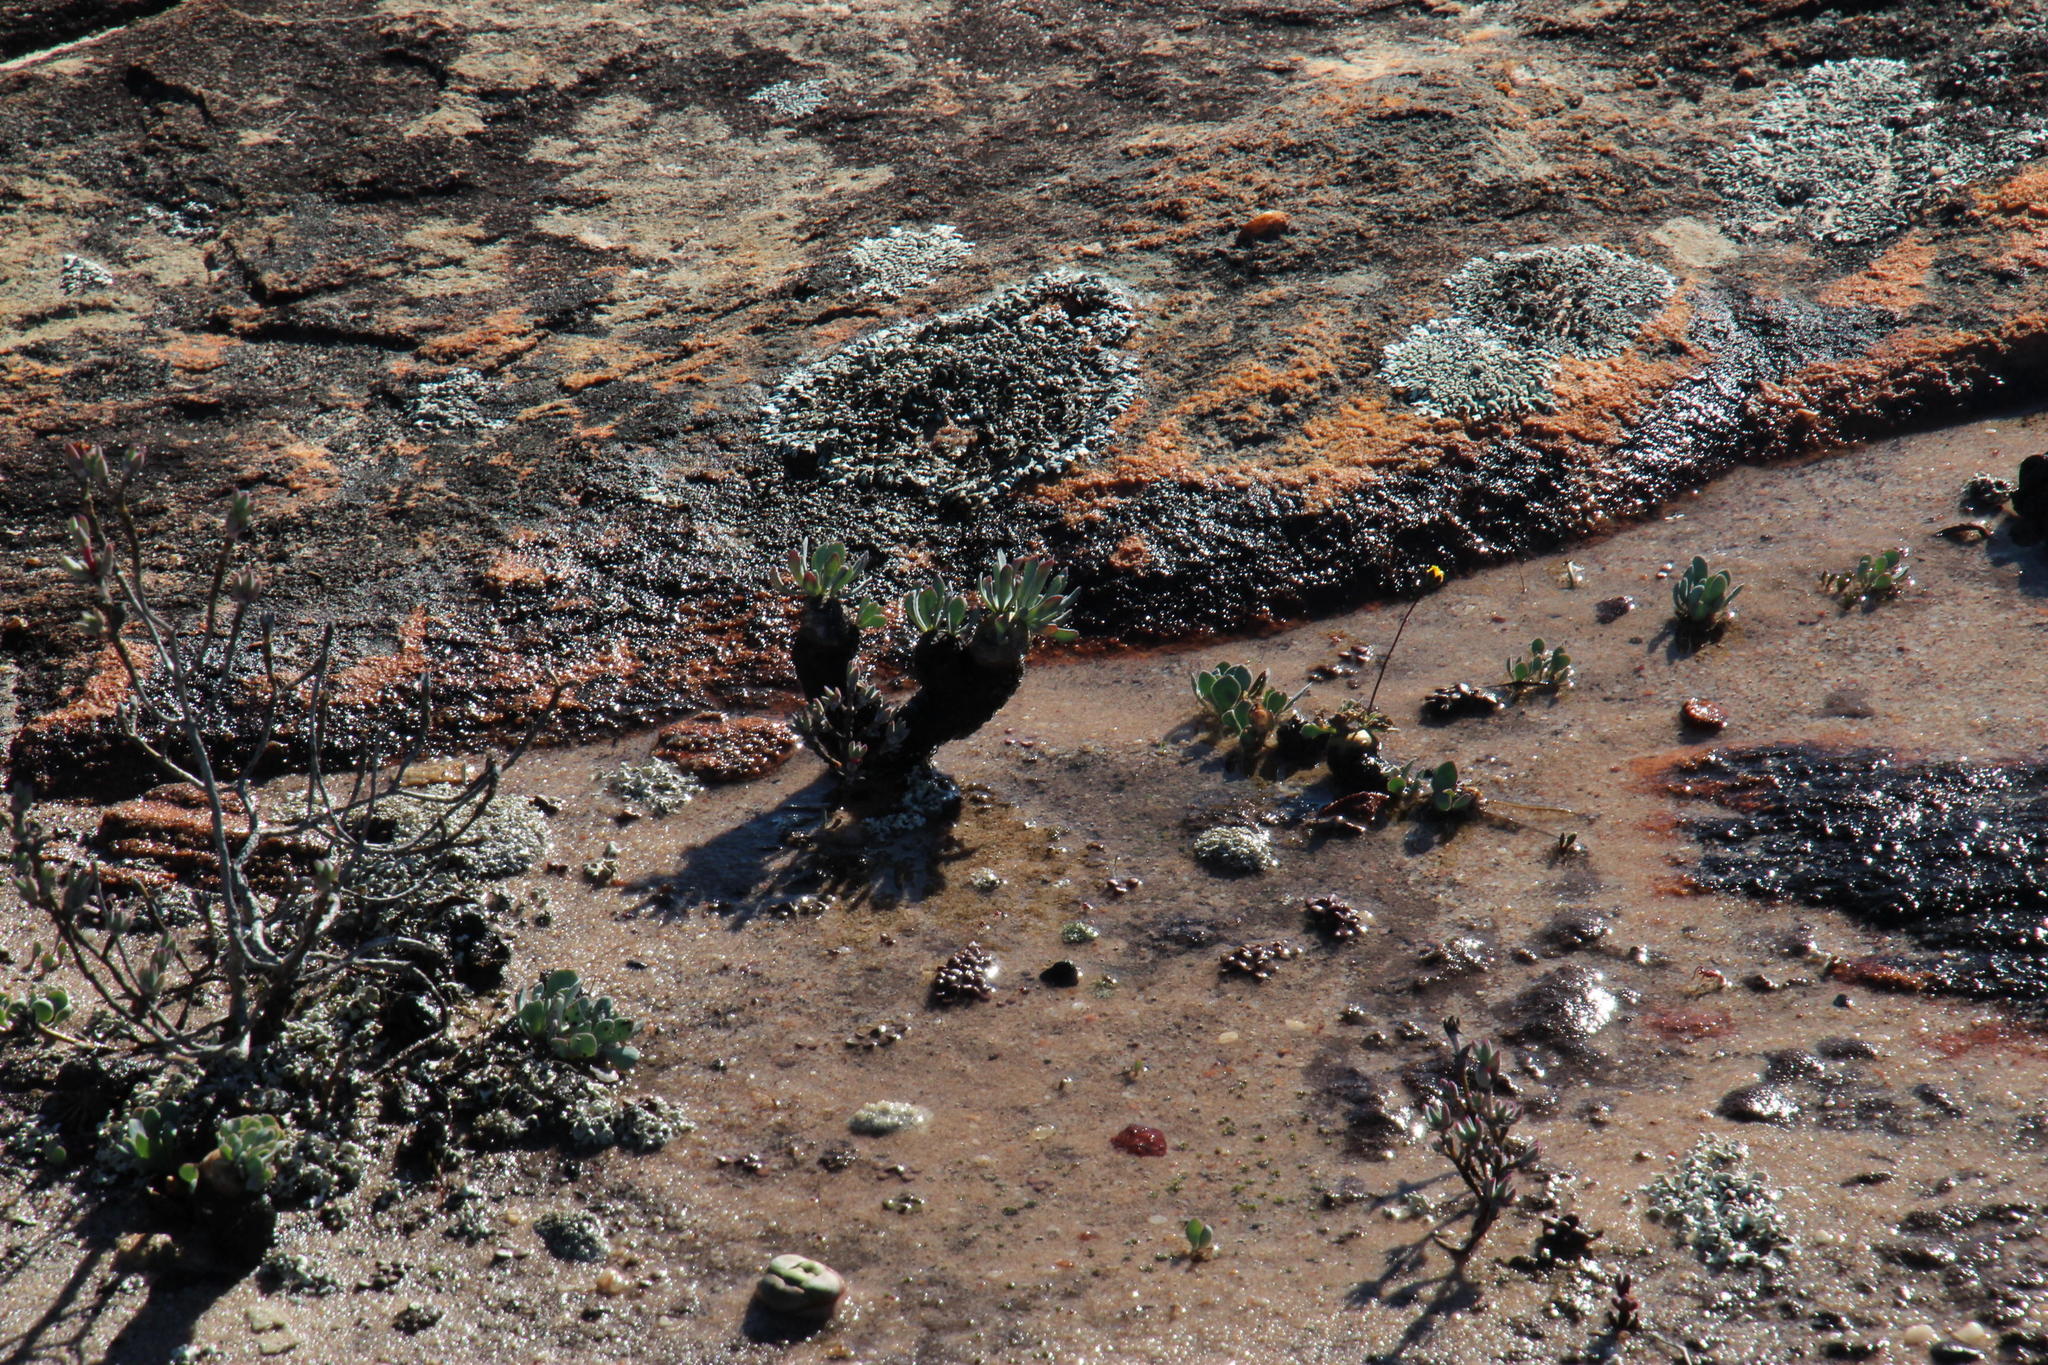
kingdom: Plantae
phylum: Tracheophyta
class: Magnoliopsida
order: Asterales
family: Asteraceae
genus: Crassothonna
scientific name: Crassothonna cacalioides
